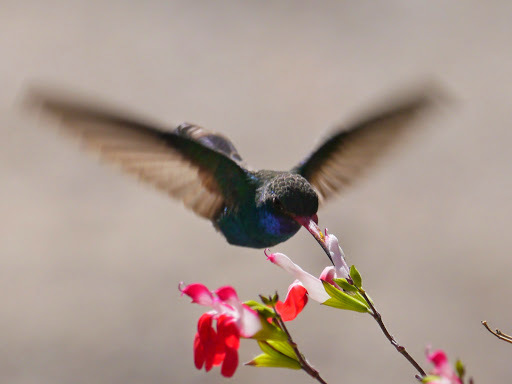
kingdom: Animalia
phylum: Chordata
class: Aves
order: Apodiformes
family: Trochilidae
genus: Cynanthus
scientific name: Cynanthus latirostris
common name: Broad-billed hummingbird
